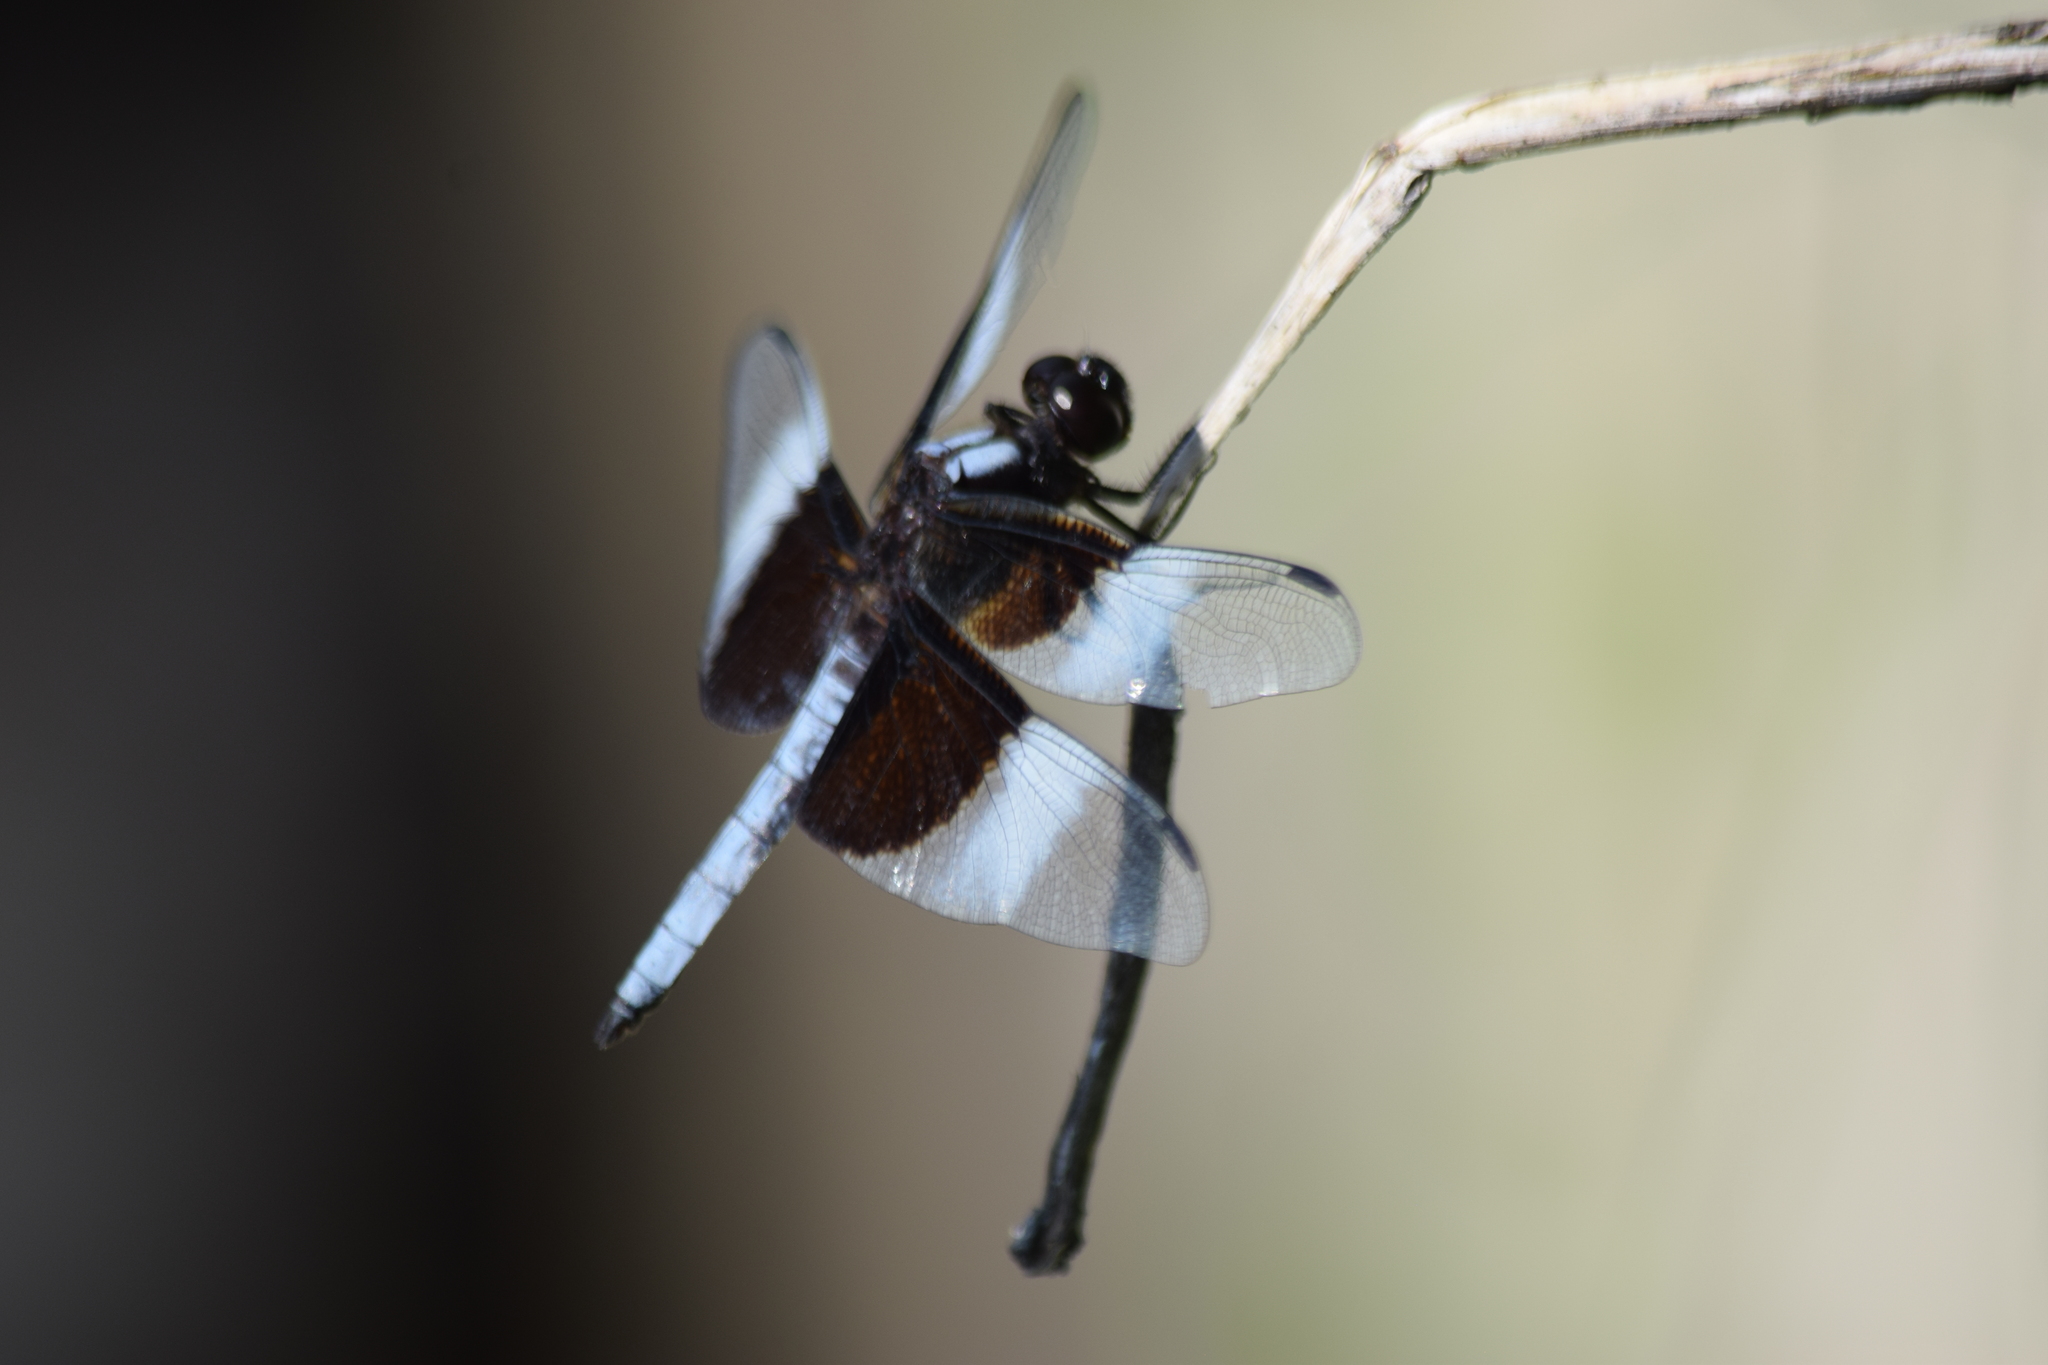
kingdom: Animalia
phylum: Arthropoda
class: Insecta
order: Odonata
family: Libellulidae
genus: Libellula
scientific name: Libellula luctuosa
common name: Widow skimmer
